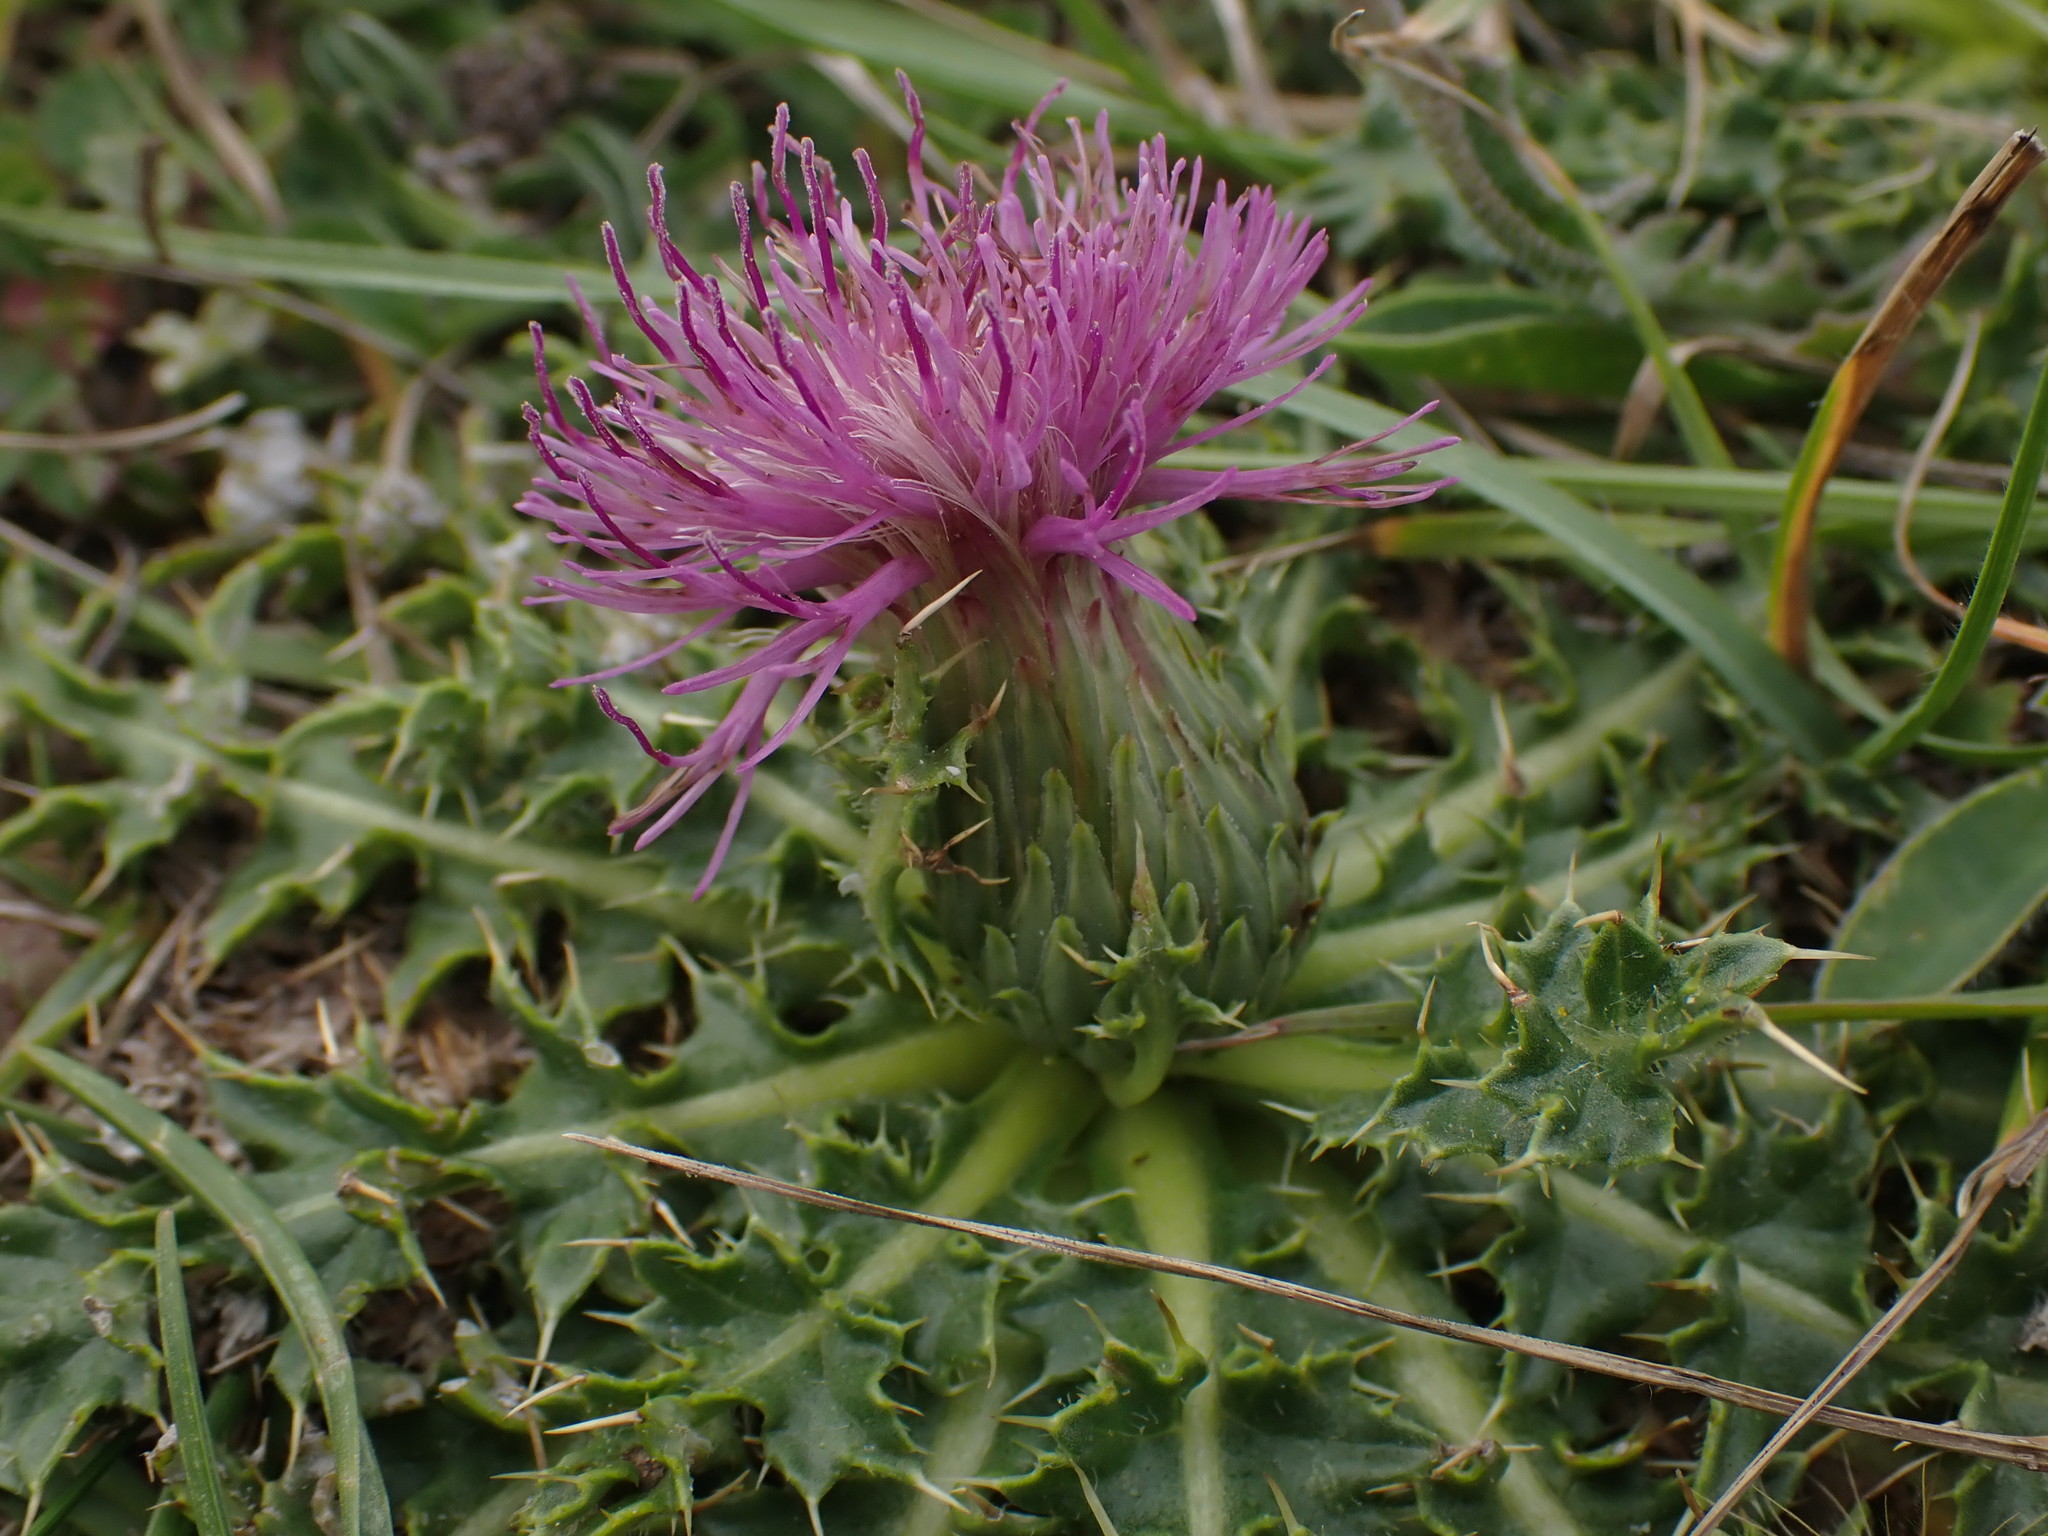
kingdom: Plantae
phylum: Tracheophyta
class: Magnoliopsida
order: Asterales
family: Asteraceae
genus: Cirsium
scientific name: Cirsium acaulon
